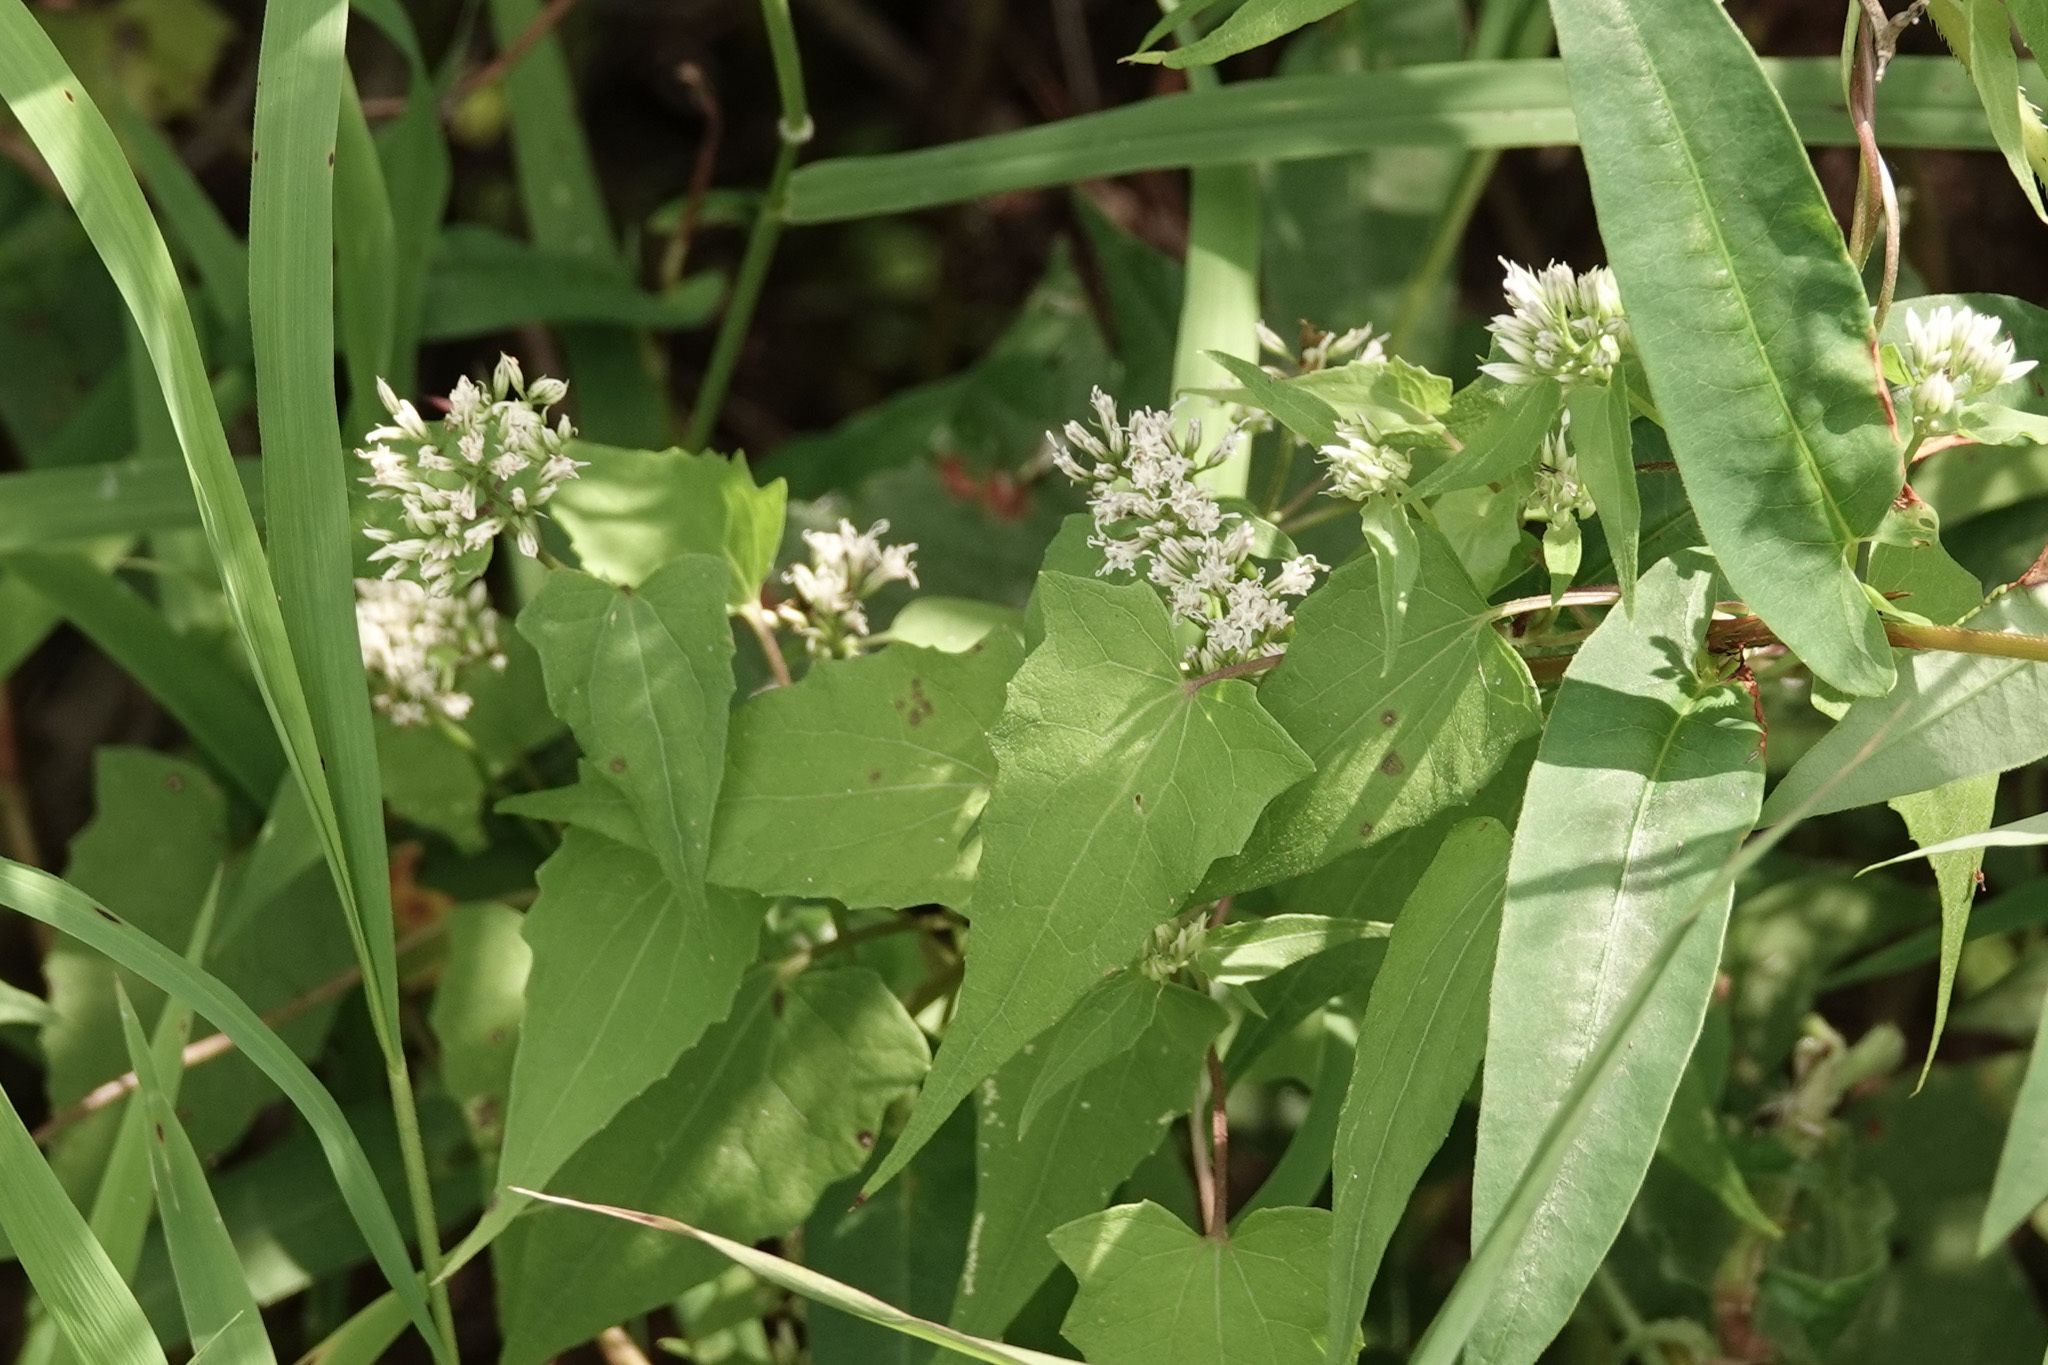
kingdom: Plantae
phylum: Tracheophyta
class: Magnoliopsida
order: Asterales
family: Asteraceae
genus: Mikania
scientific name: Mikania scandens
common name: Climbing hempvine
